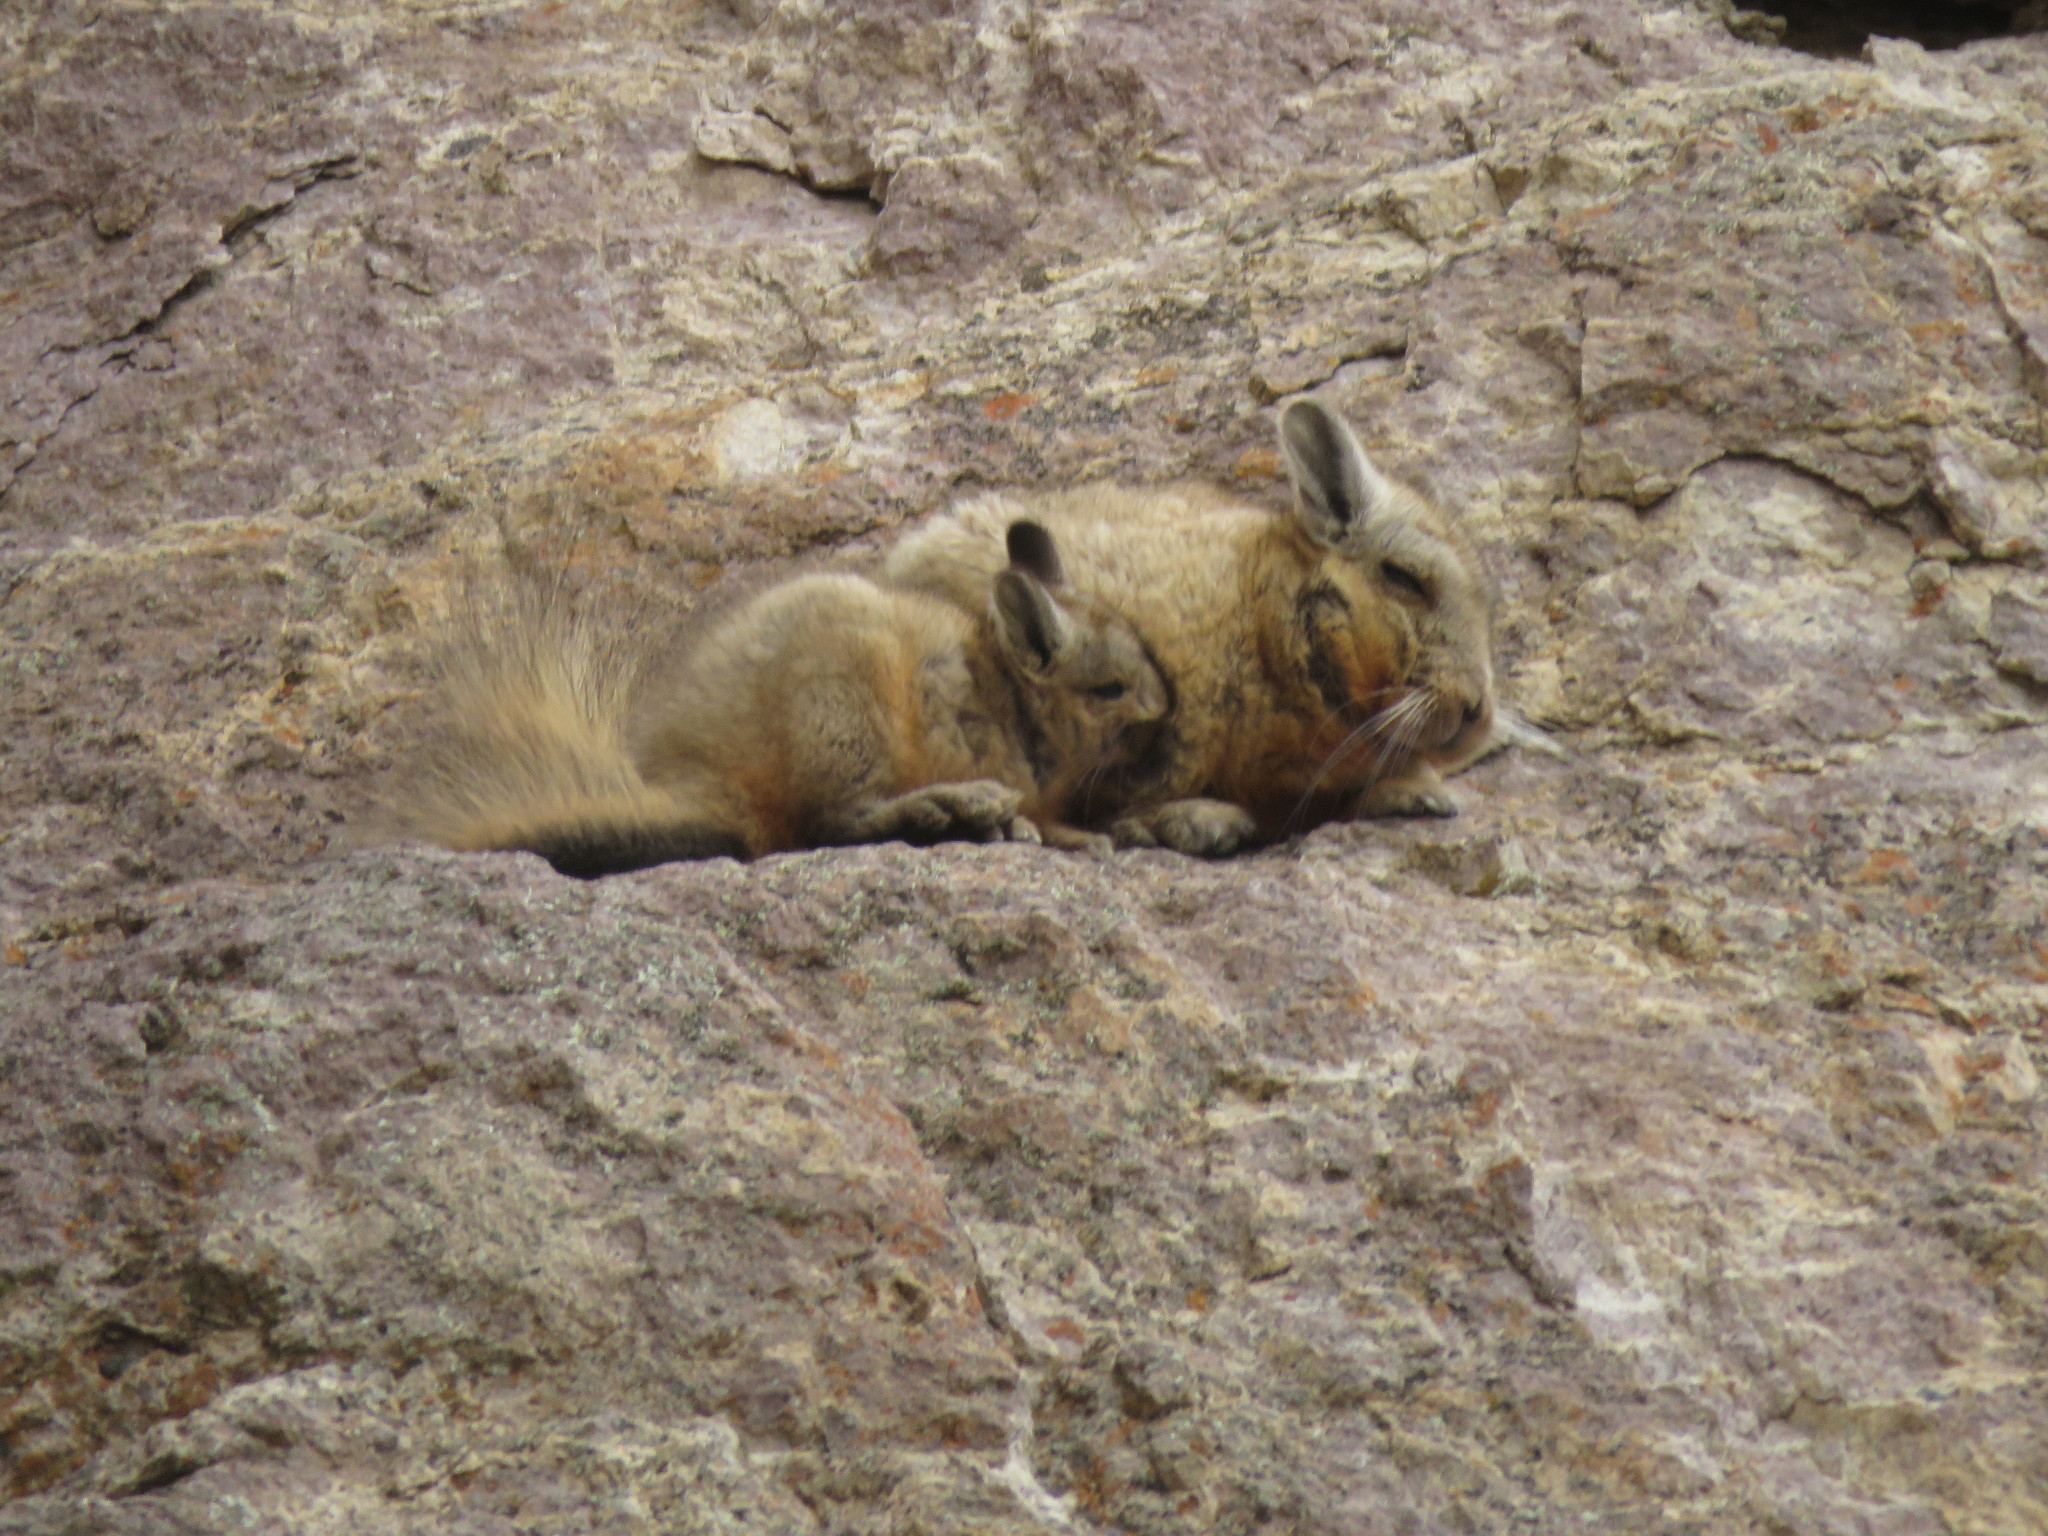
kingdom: Animalia
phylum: Chordata
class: Mammalia
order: Rodentia
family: Chinchillidae
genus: Lagidium
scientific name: Lagidium wolffsohni
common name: Wolffsohn's viscacha
